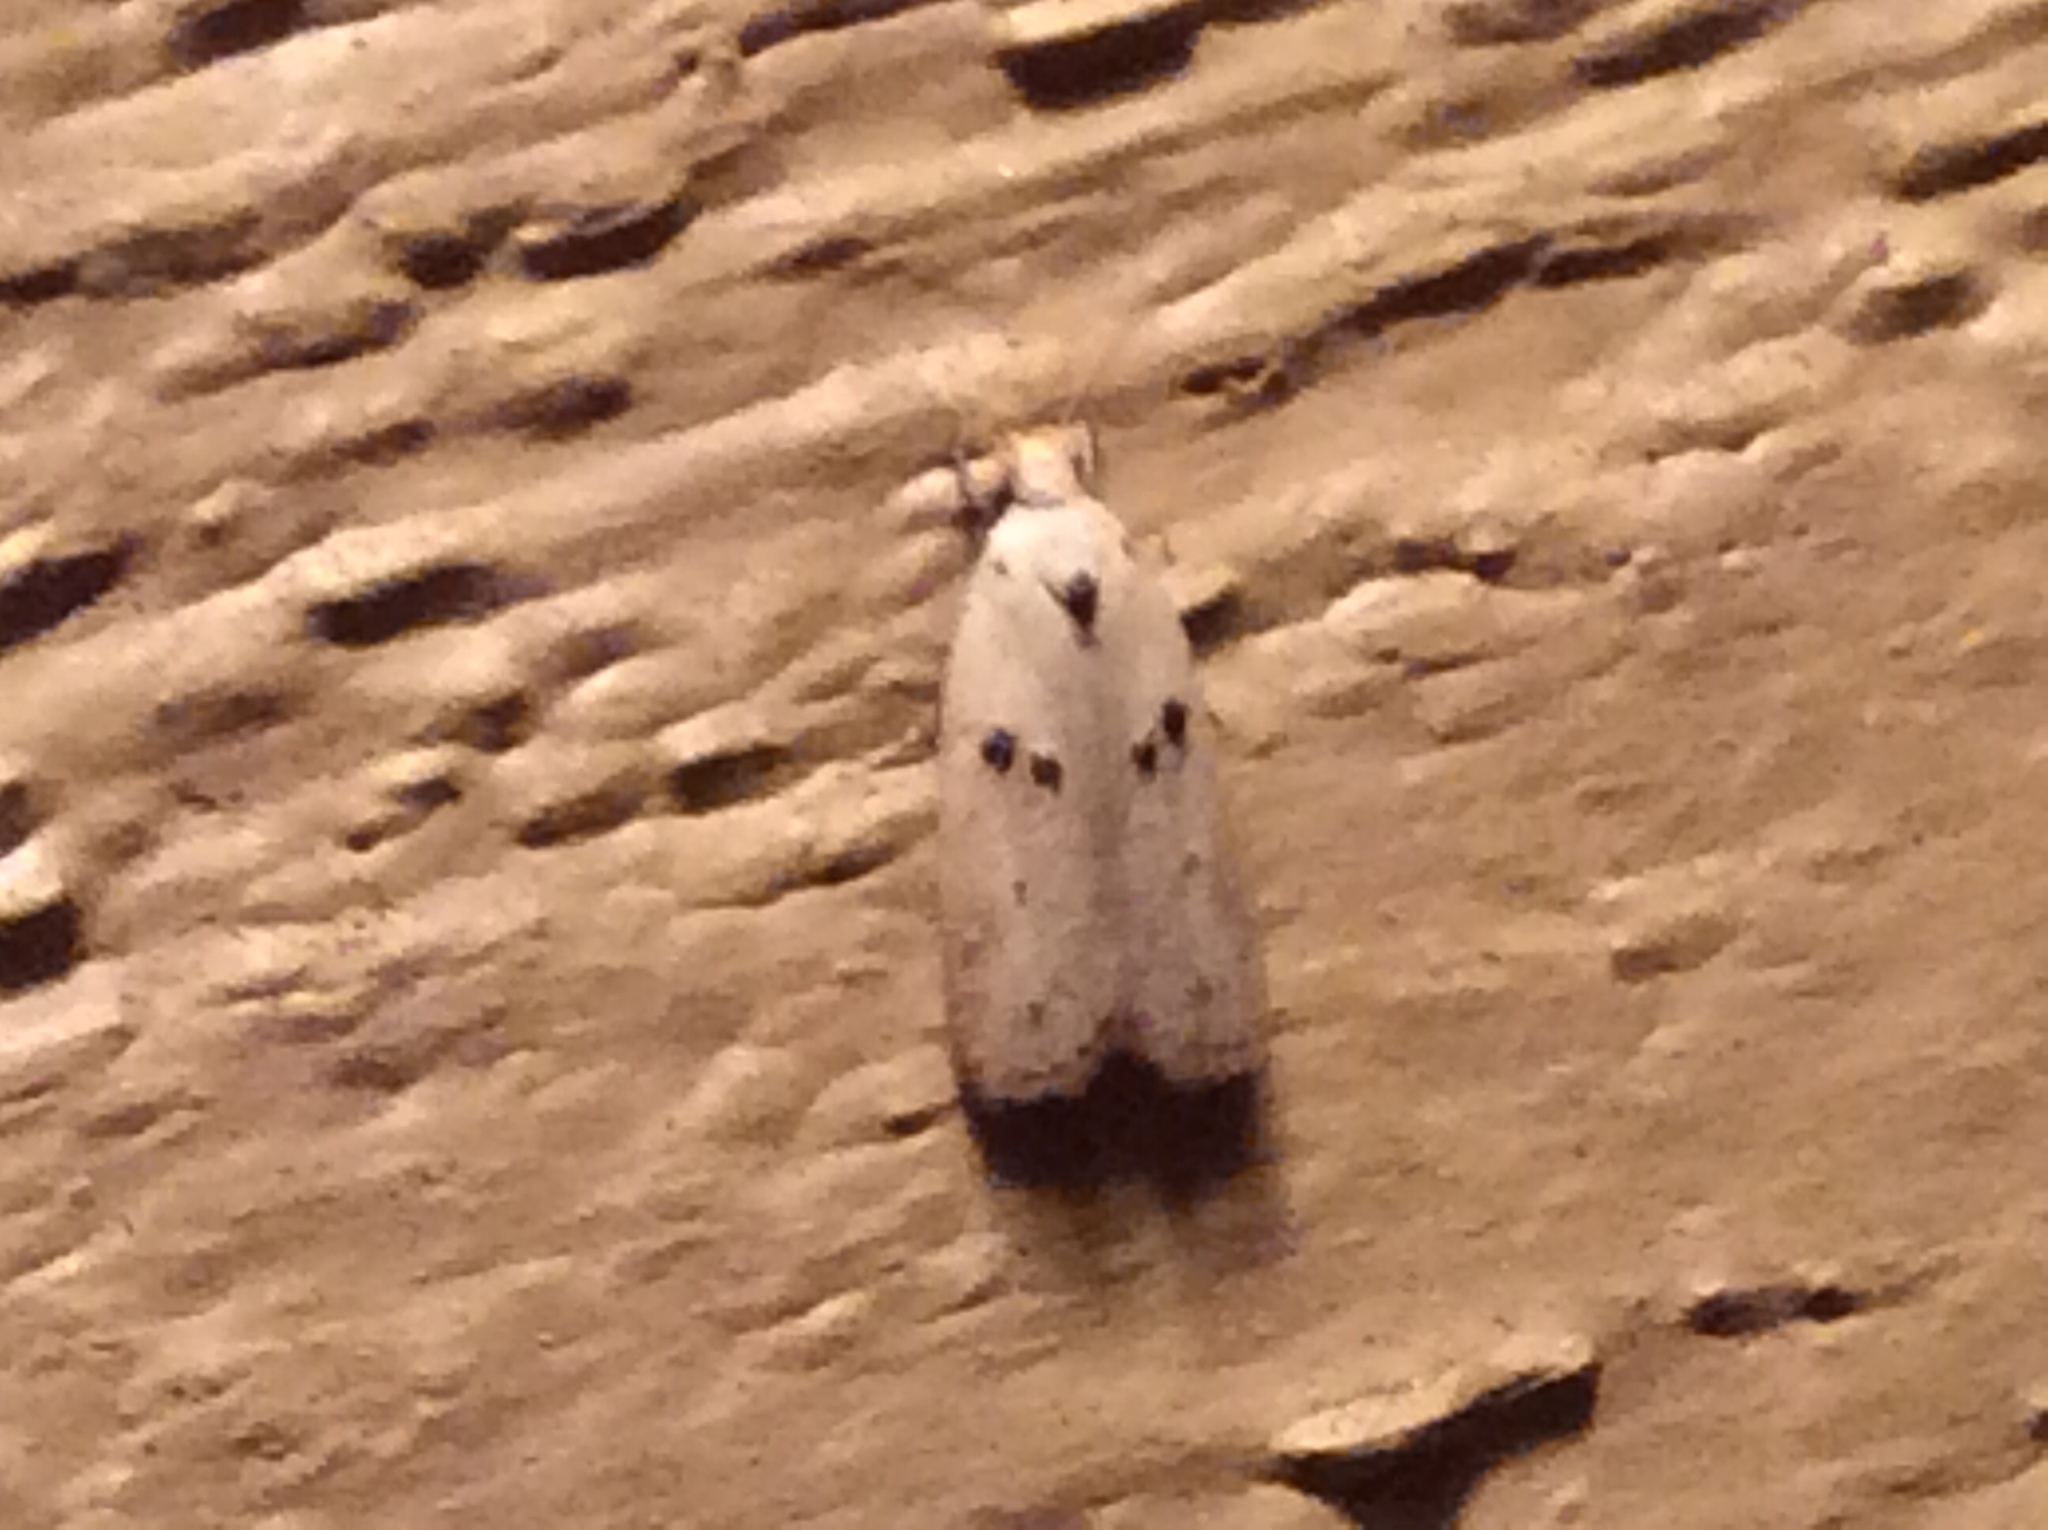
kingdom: Animalia
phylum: Arthropoda
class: Insecta
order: Lepidoptera
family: Peleopodidae
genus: Scythropiodes
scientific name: Scythropiodes issikii
